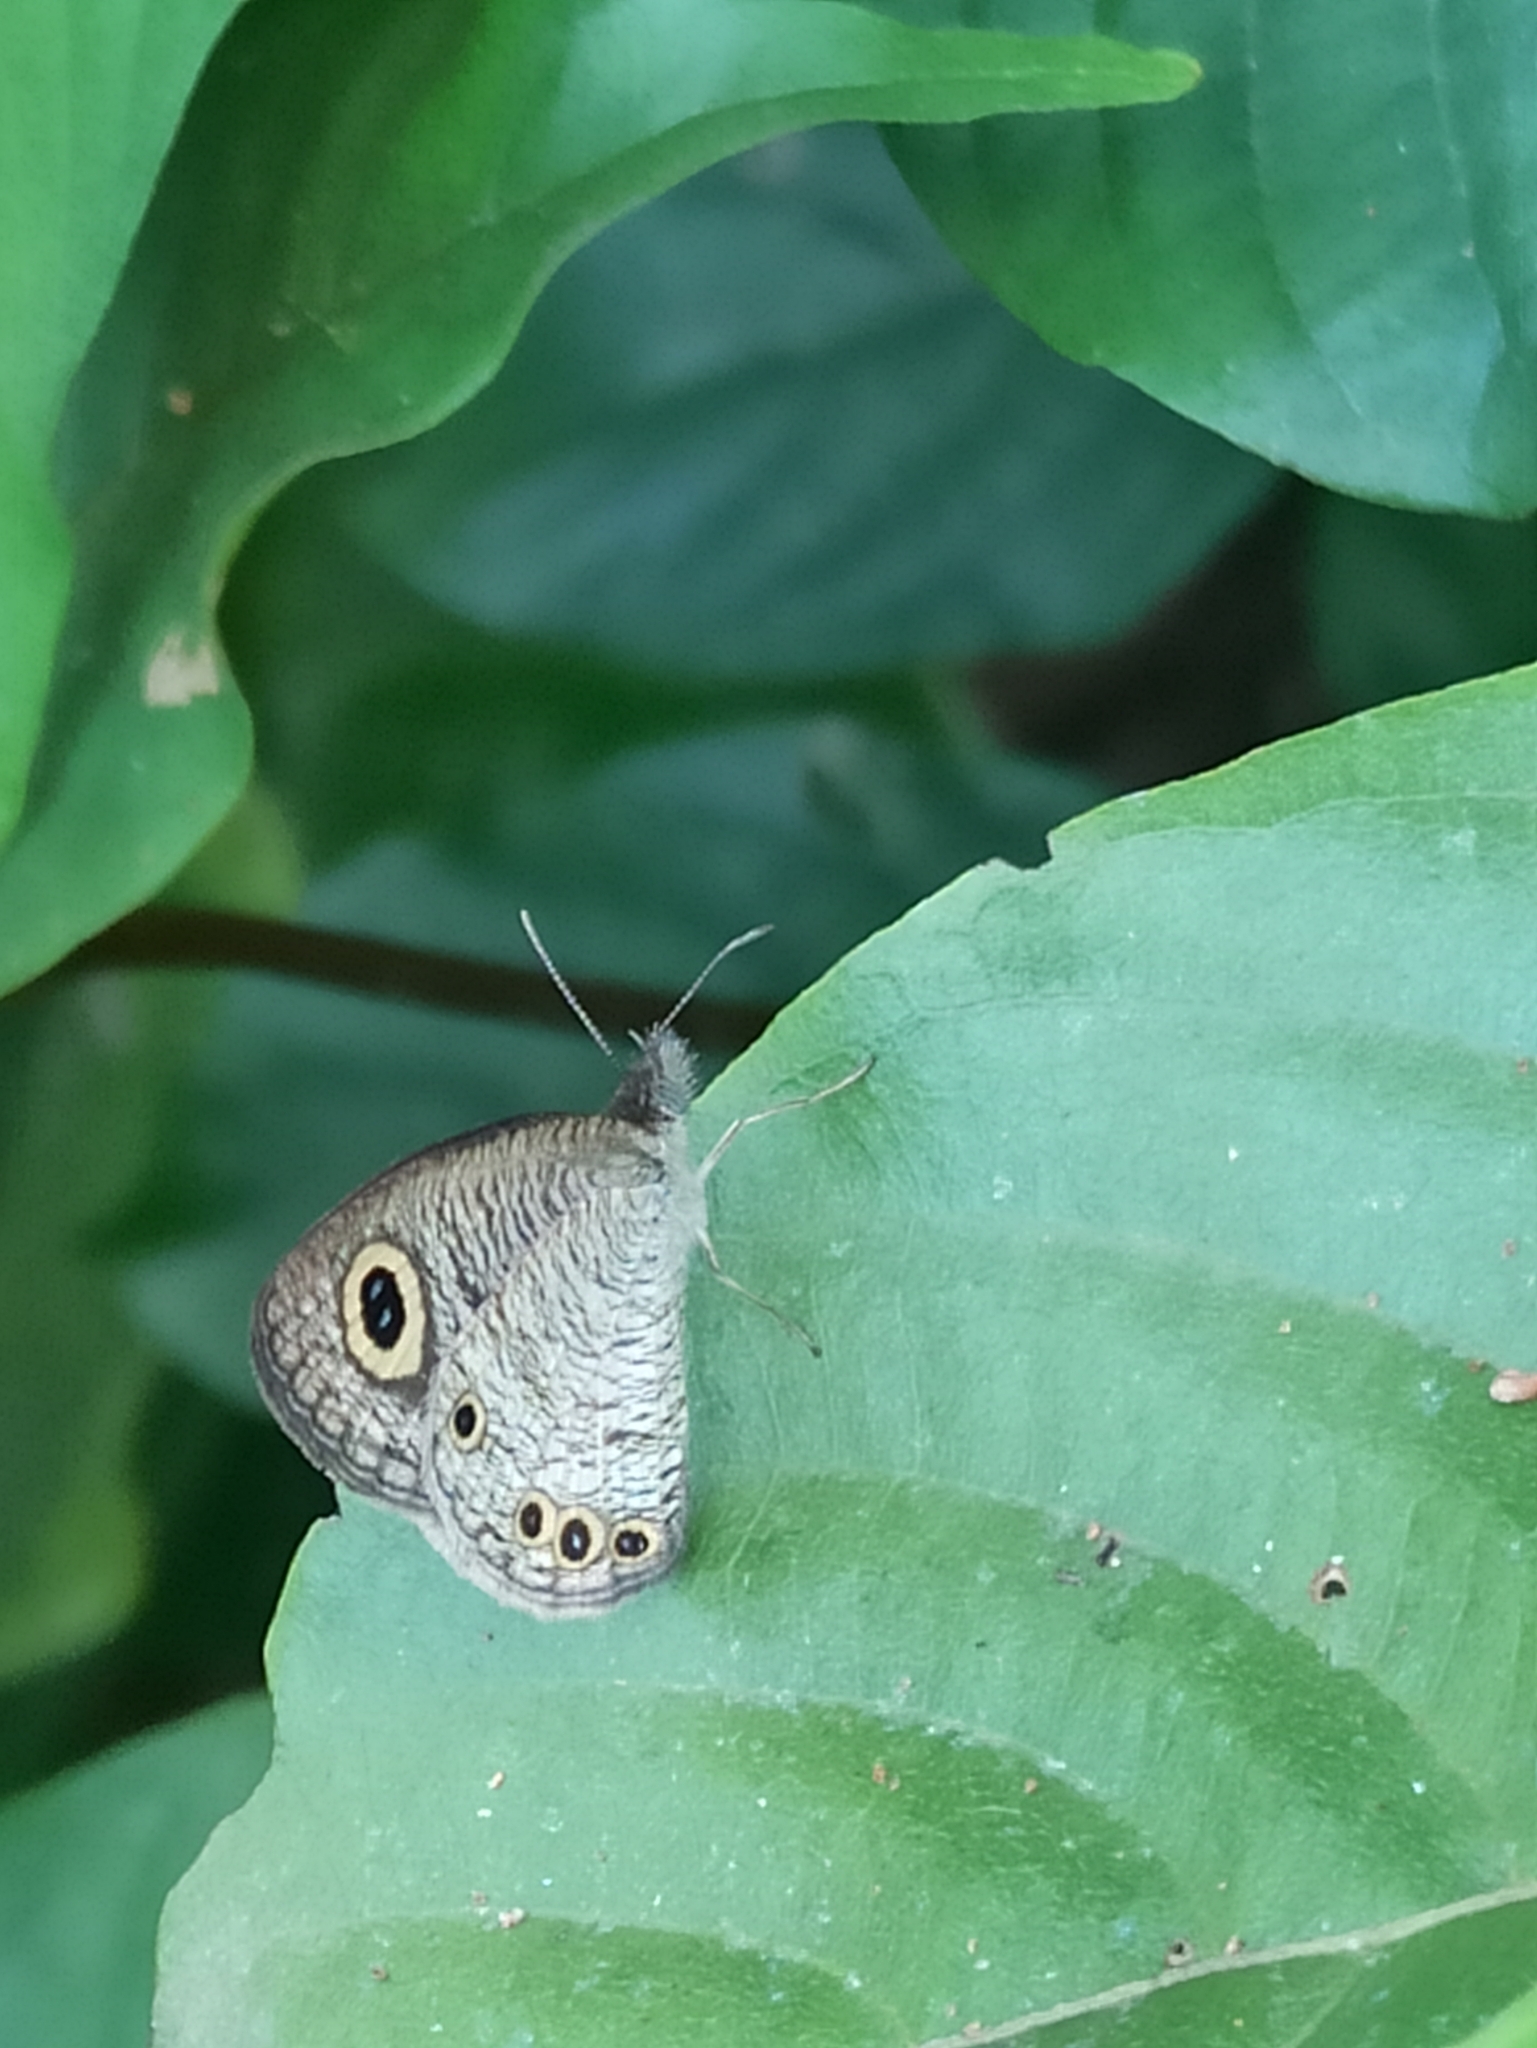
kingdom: Animalia
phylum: Arthropoda
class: Insecta
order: Lepidoptera
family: Nymphalidae
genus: Ypthima
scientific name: Ypthima huebneri
